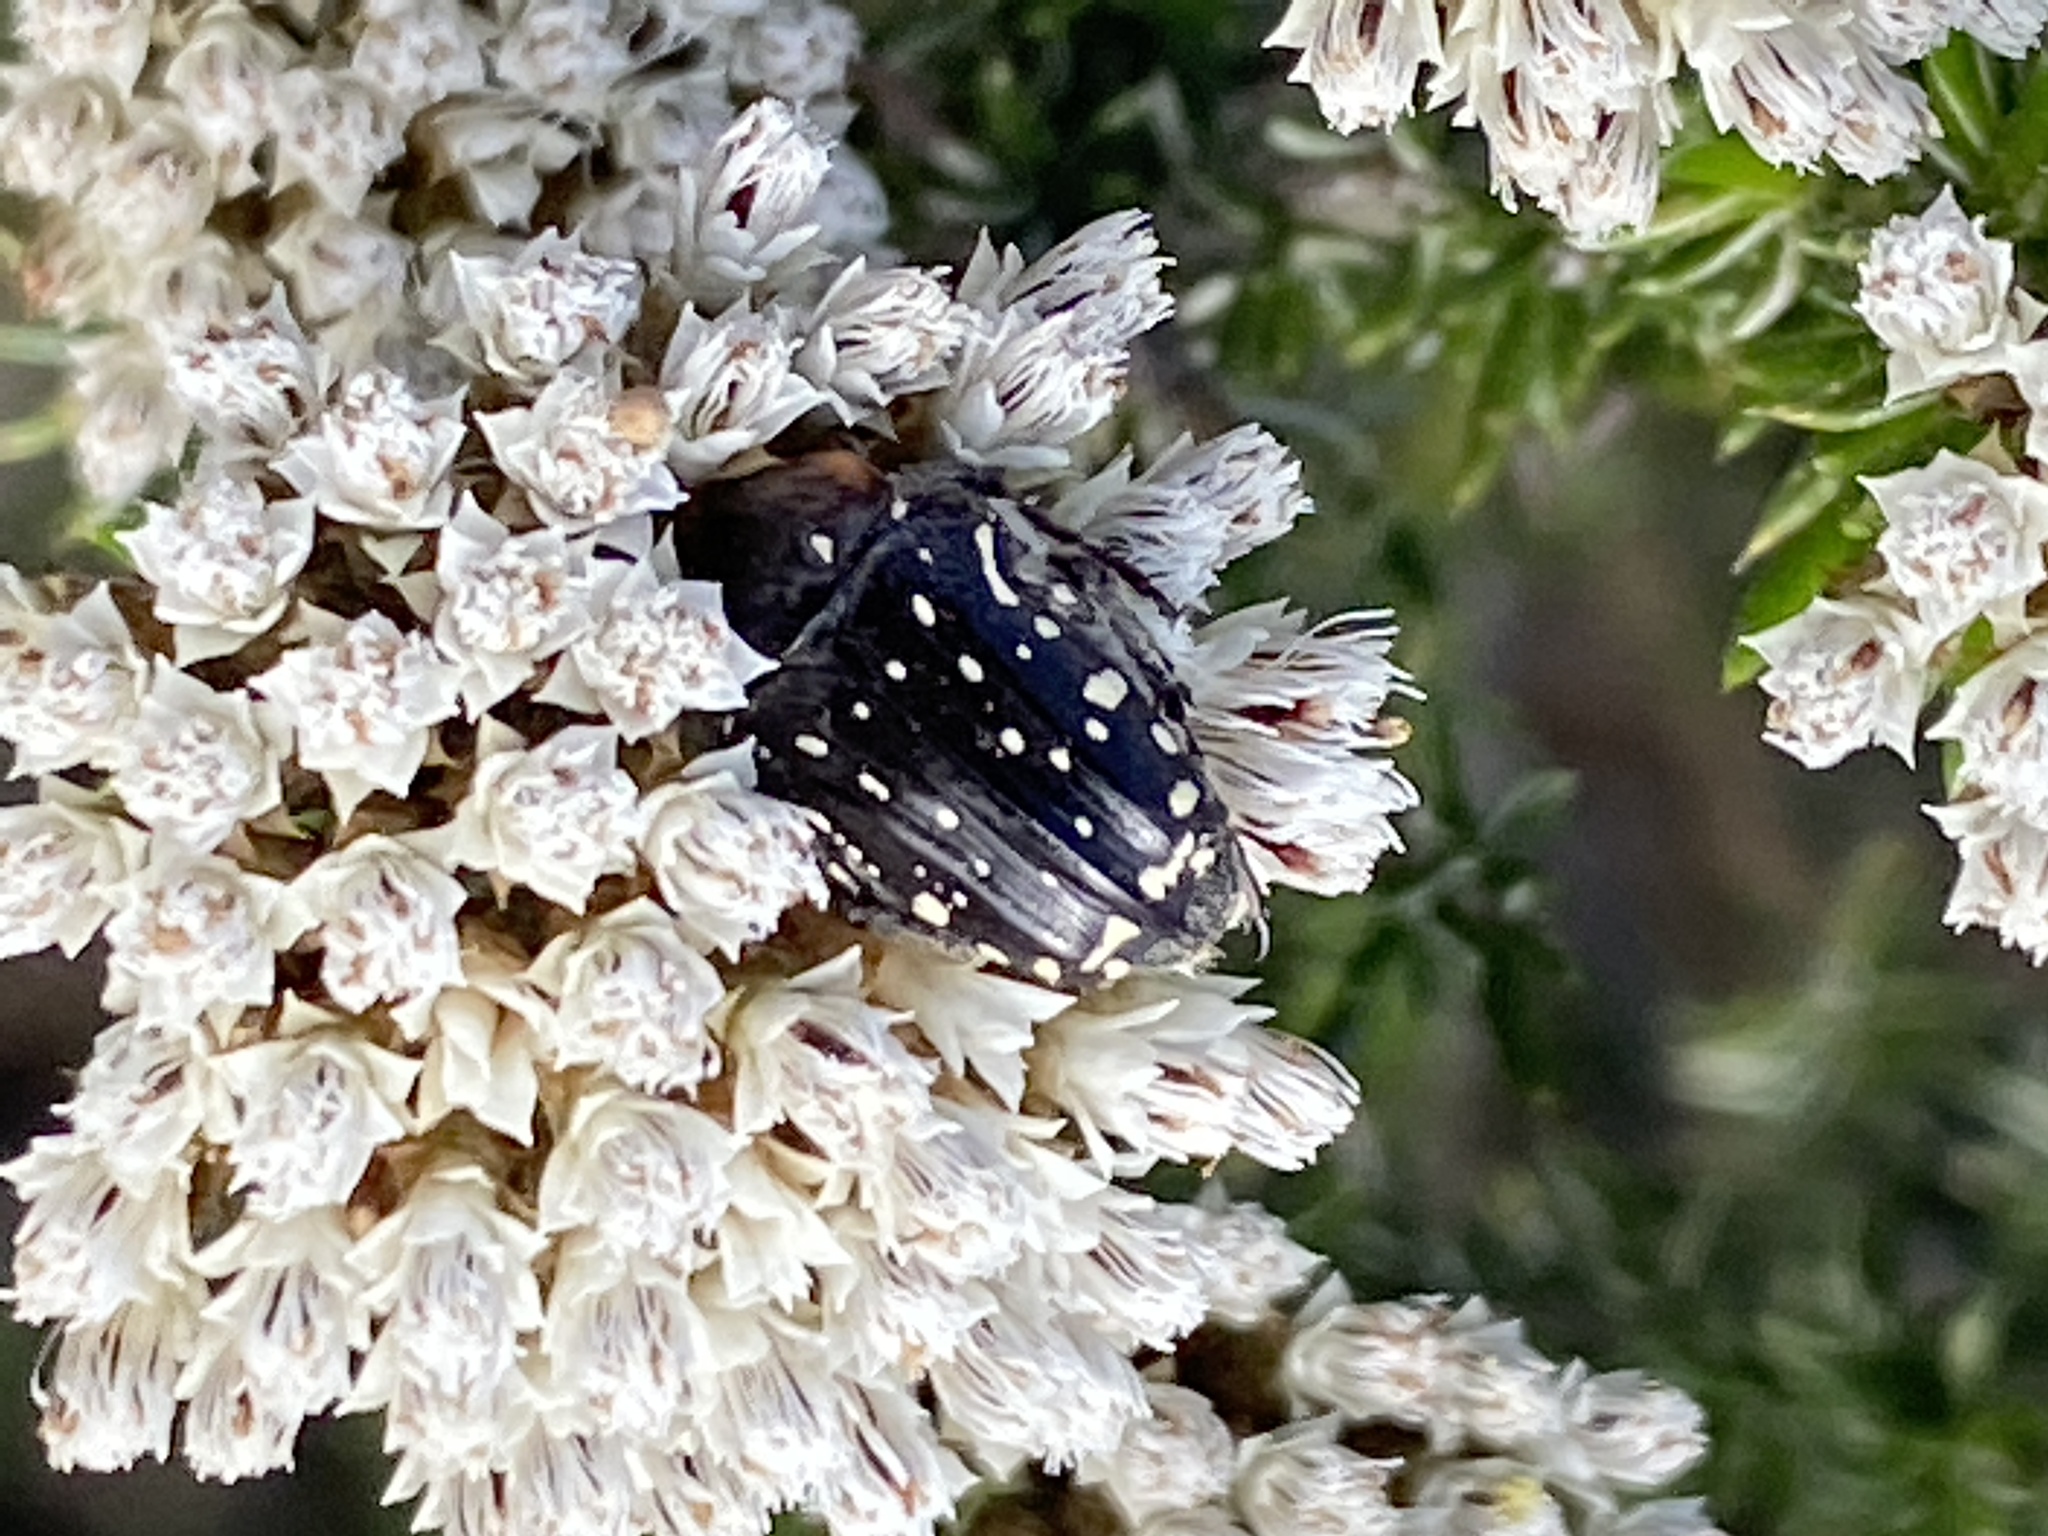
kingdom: Animalia
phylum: Arthropoda
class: Insecta
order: Coleoptera
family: Scarabaeidae
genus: Oxythyrea
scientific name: Oxythyrea
